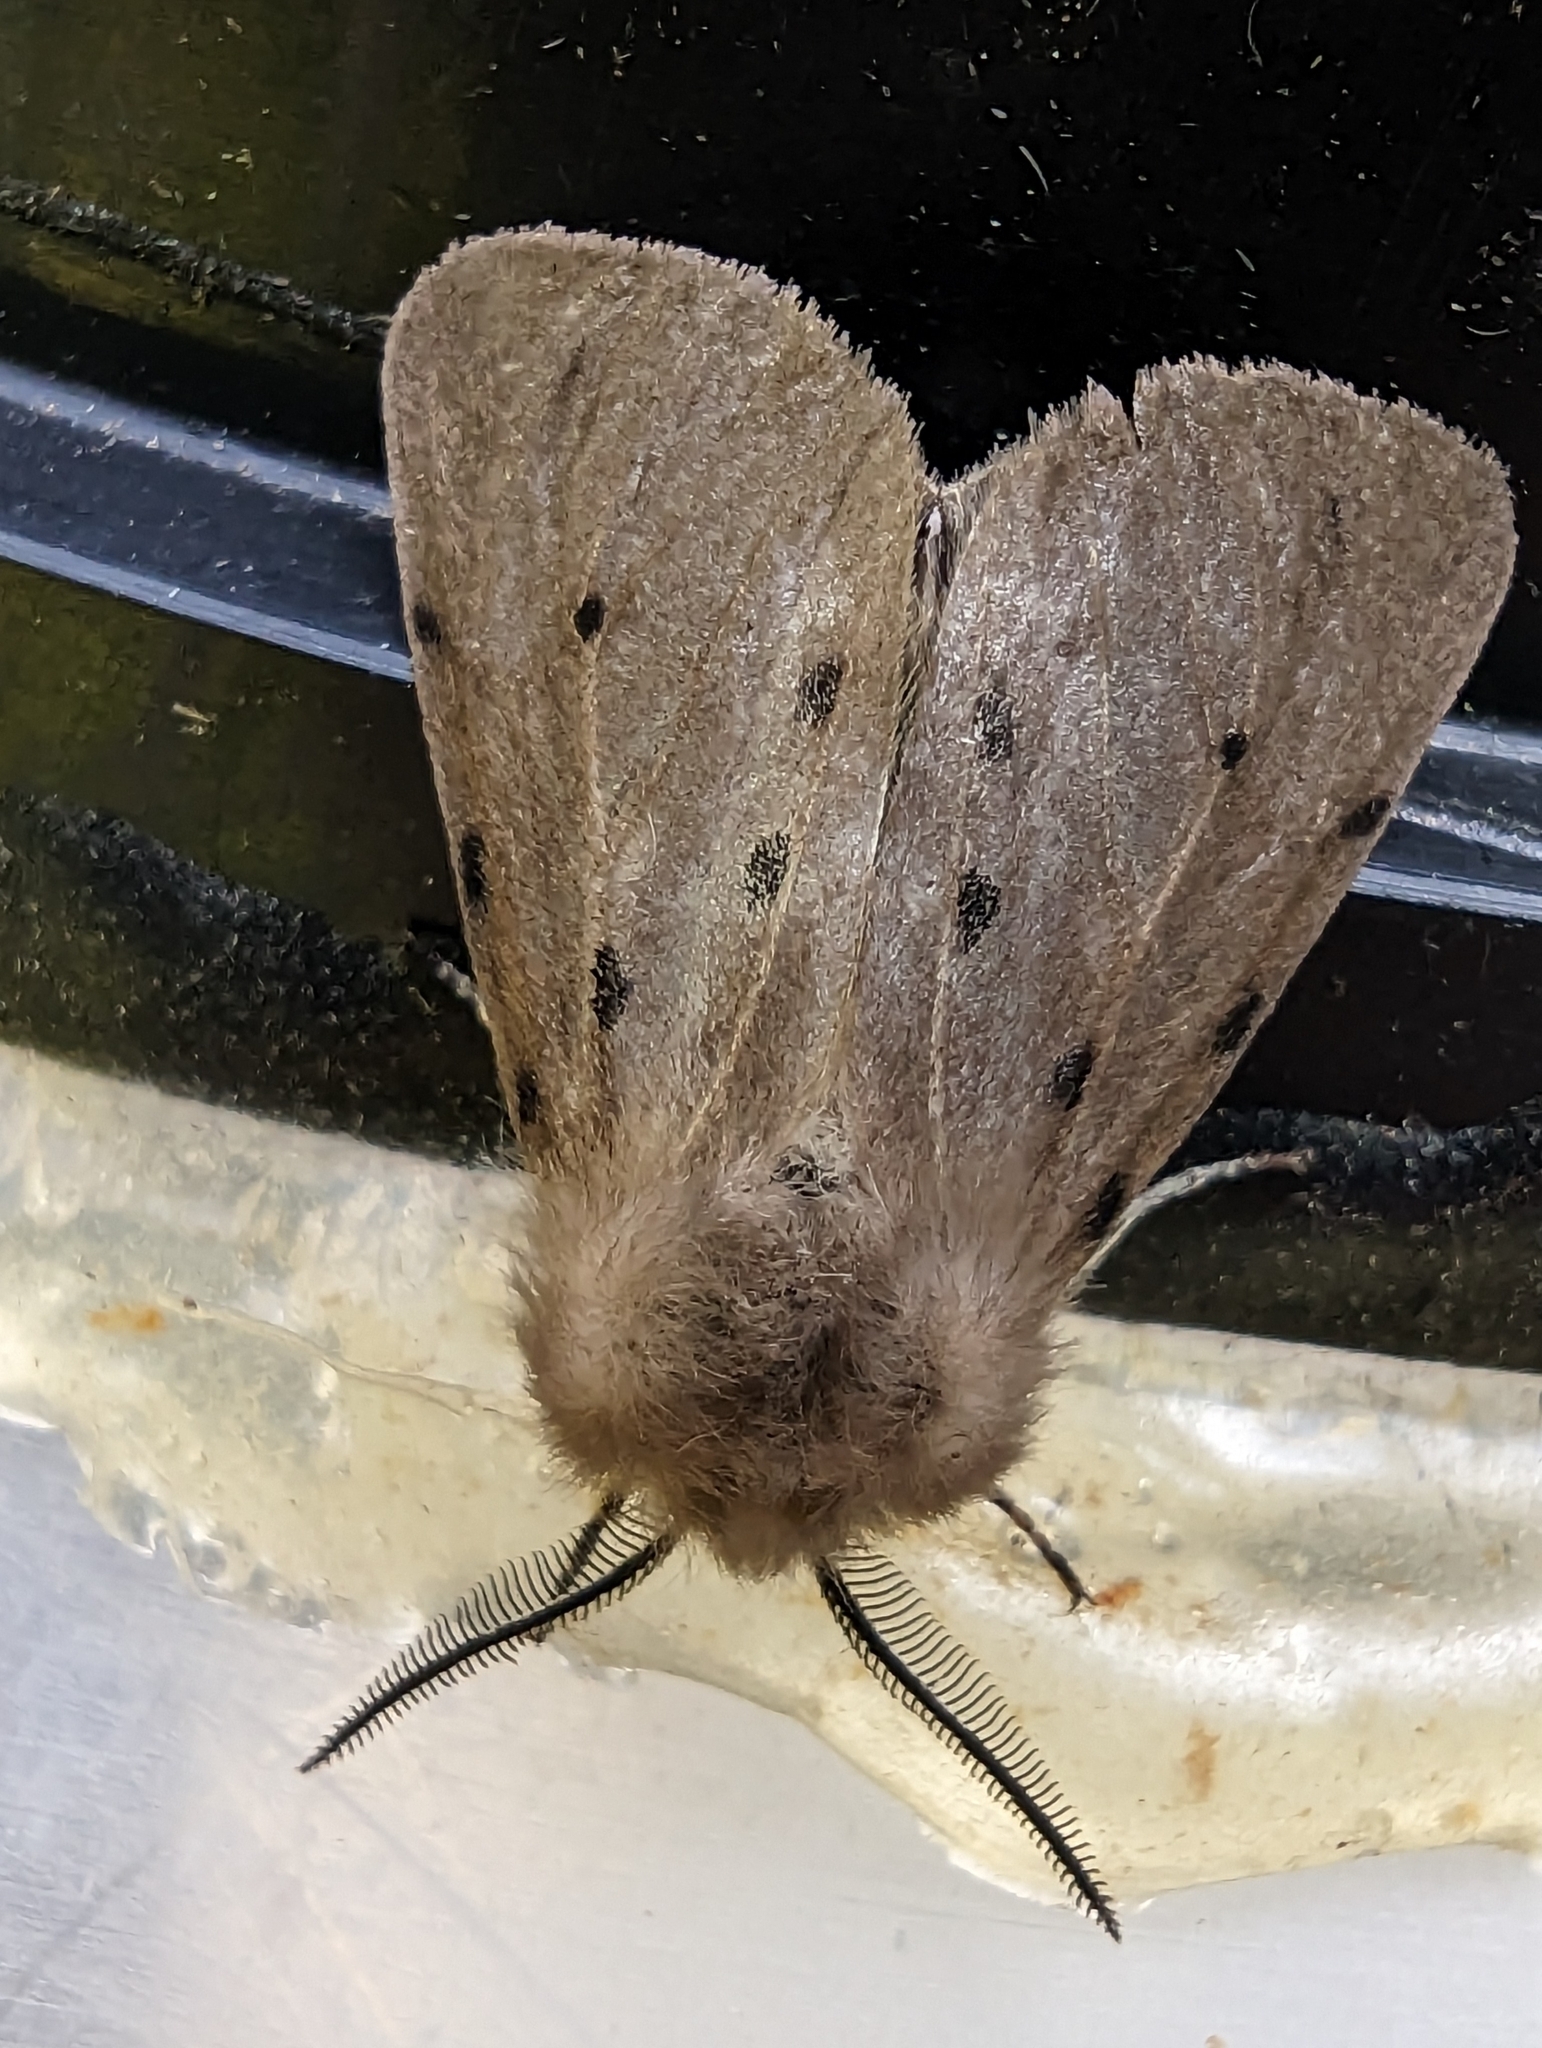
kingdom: Animalia
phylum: Arthropoda
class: Insecta
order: Lepidoptera
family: Erebidae
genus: Diaphora
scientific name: Diaphora mendica
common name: Muslin moth
